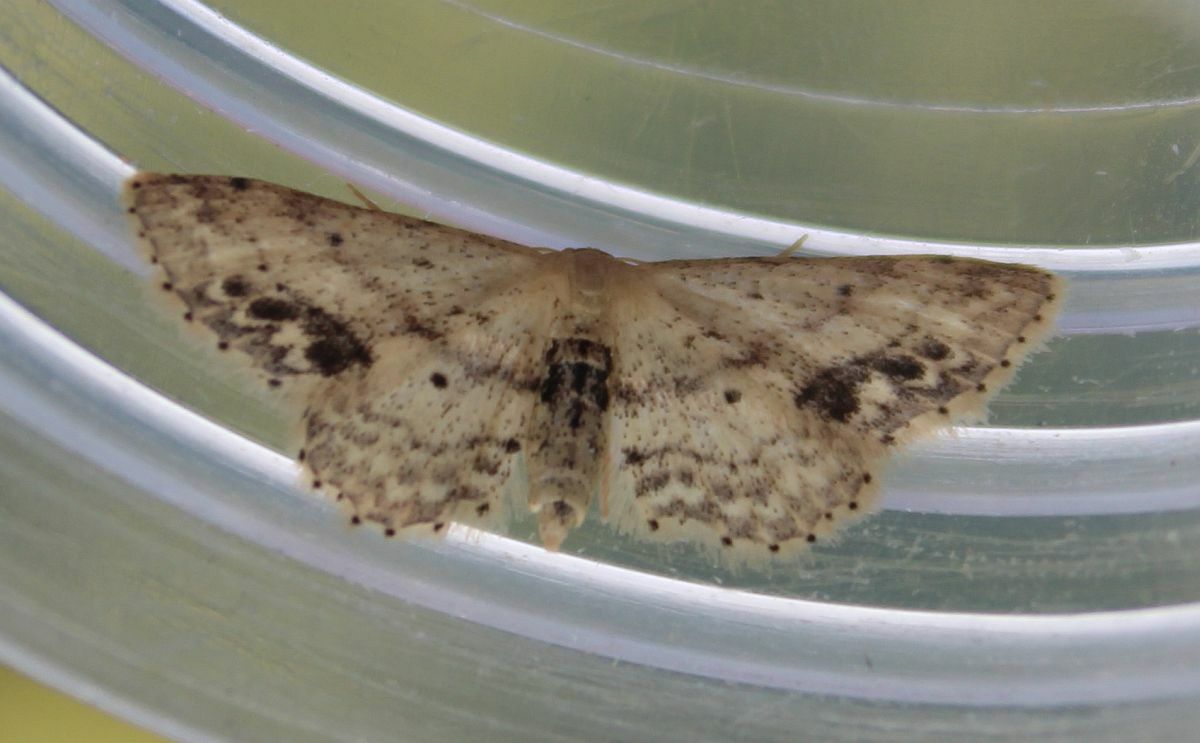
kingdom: Animalia
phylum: Arthropoda
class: Insecta
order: Lepidoptera
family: Geometridae
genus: Idaea
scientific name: Idaea dimidiata
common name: Single-dotted wave
